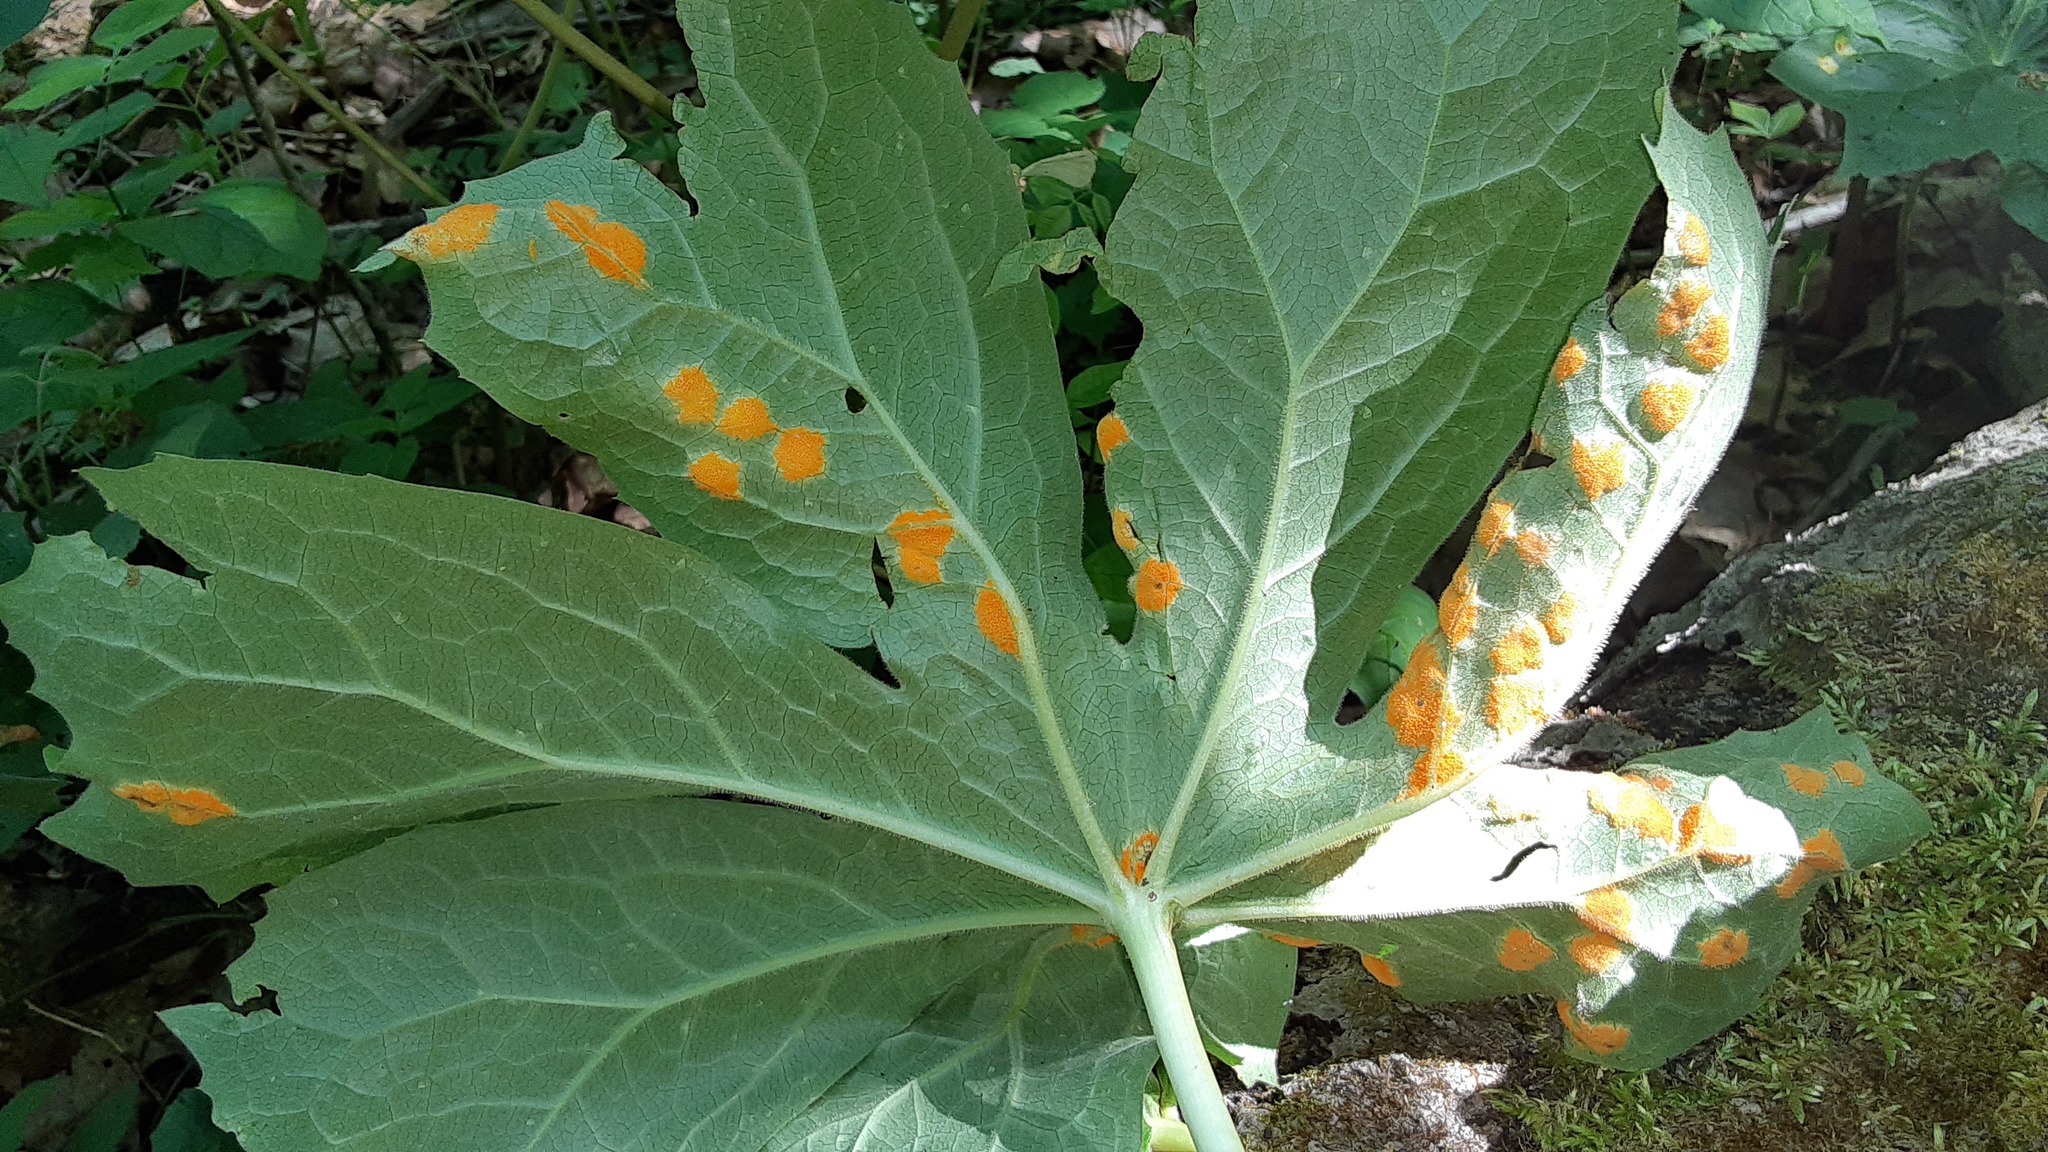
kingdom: Fungi
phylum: Basidiomycota
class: Pucciniomycetes
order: Pucciniales
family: Pucciniaceae
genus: Puccinia
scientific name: Puccinia podophylli
